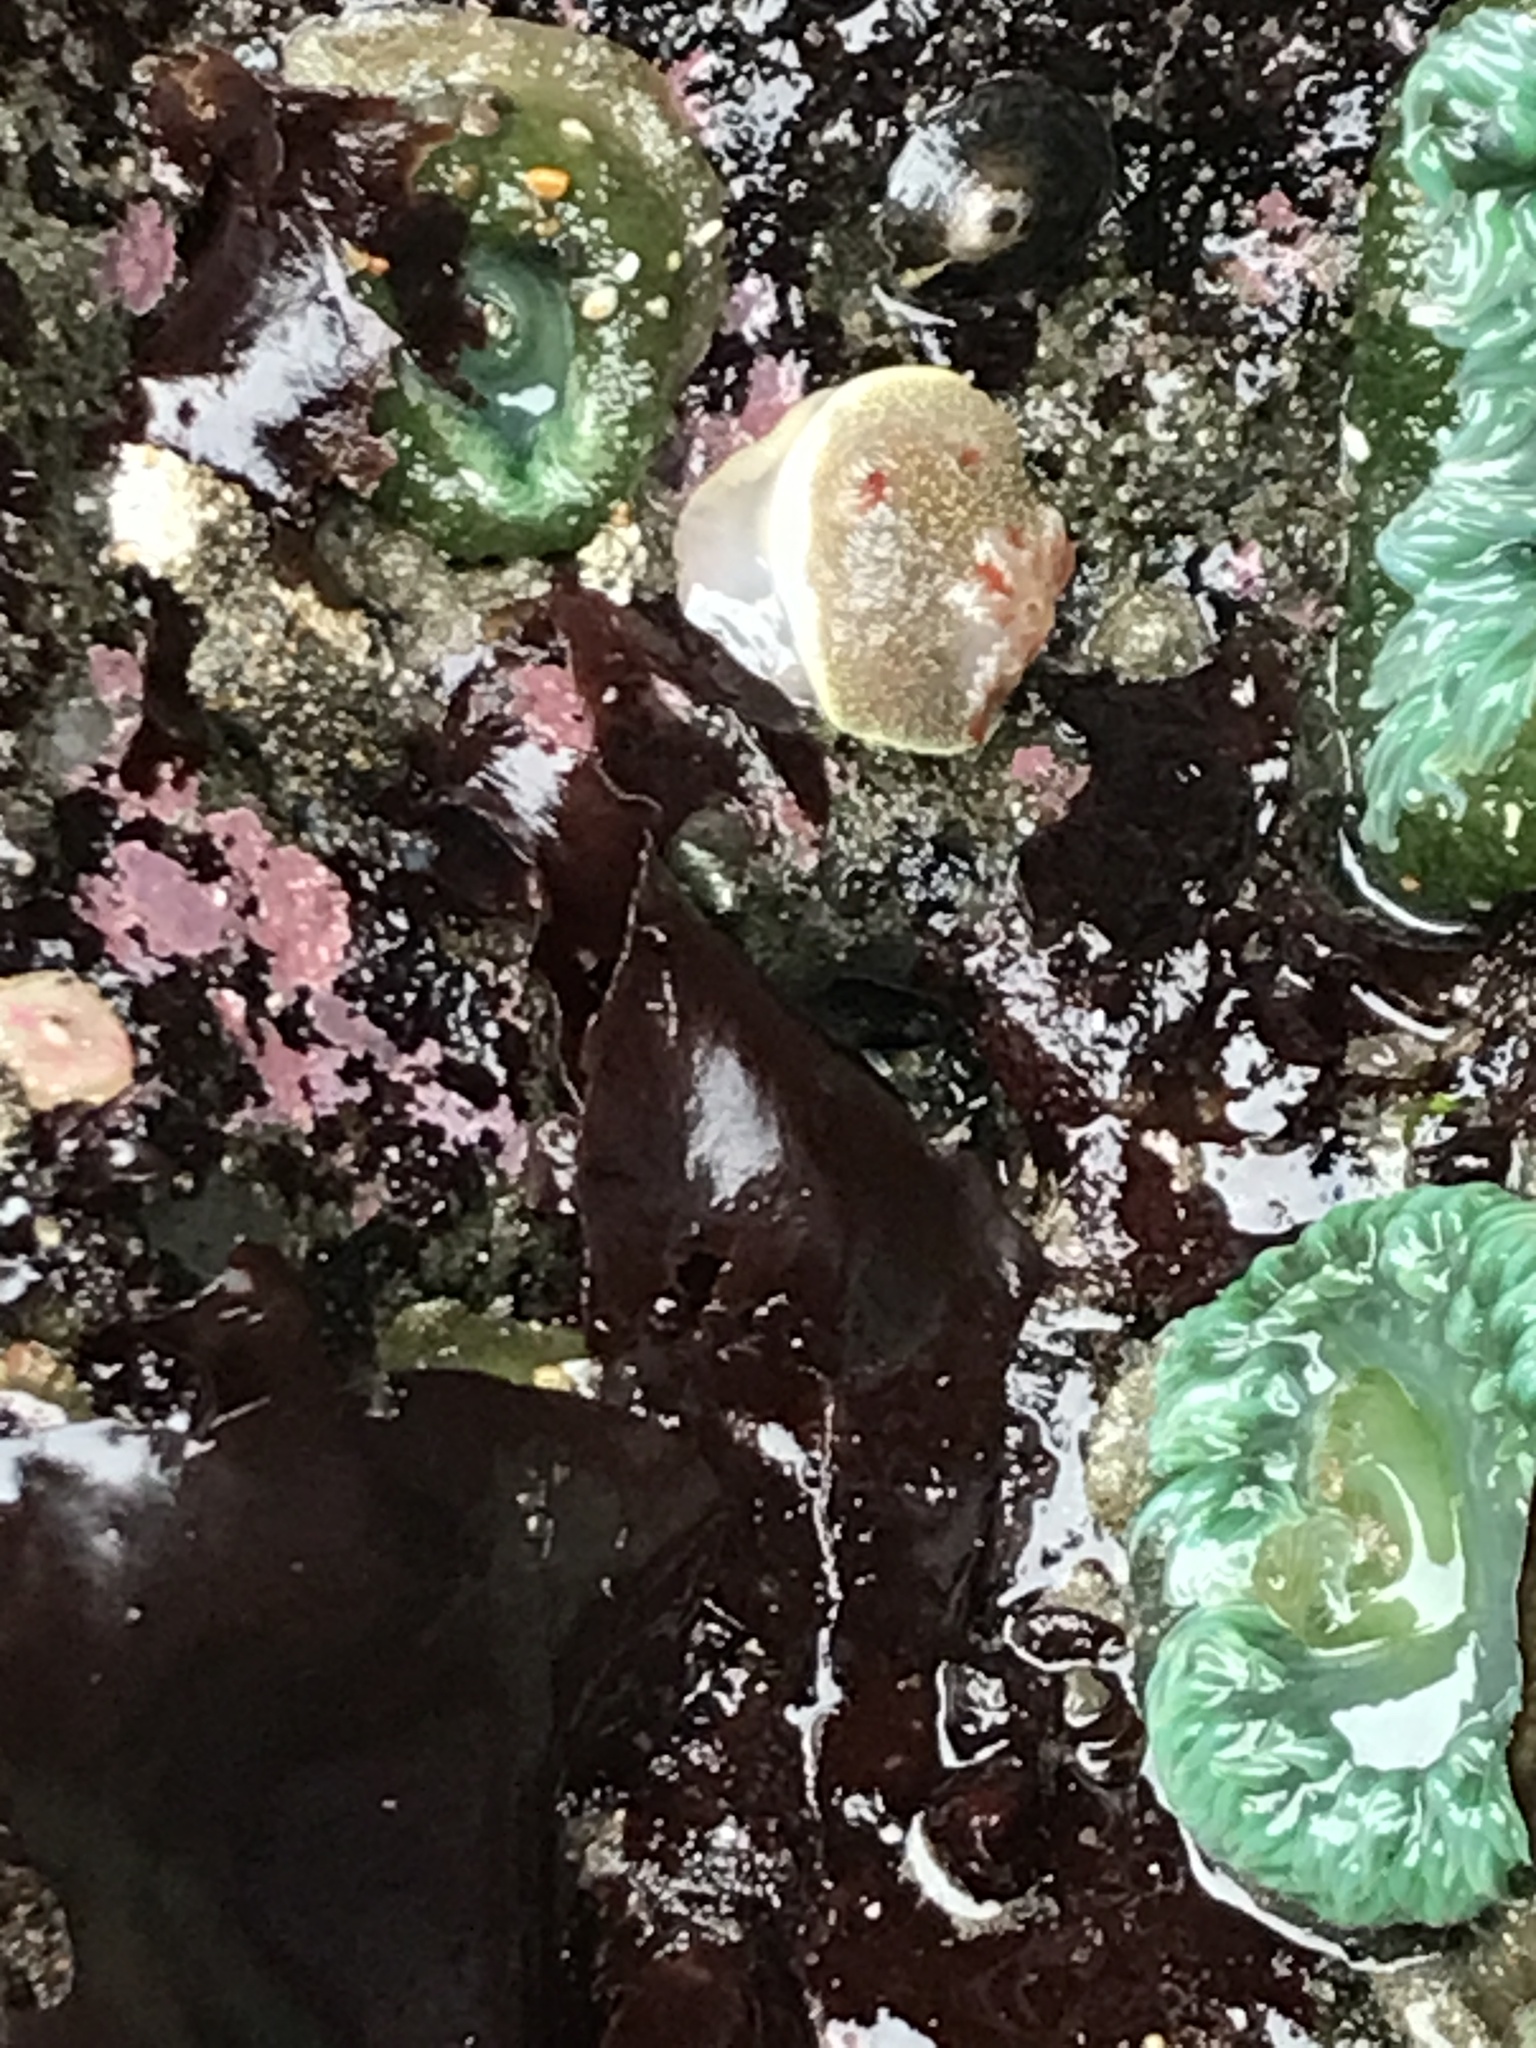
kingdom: Animalia
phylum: Mollusca
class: Gastropoda
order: Nudibranchia
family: Onchidorididae
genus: Acanthodoris
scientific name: Acanthodoris nanaimoensis
